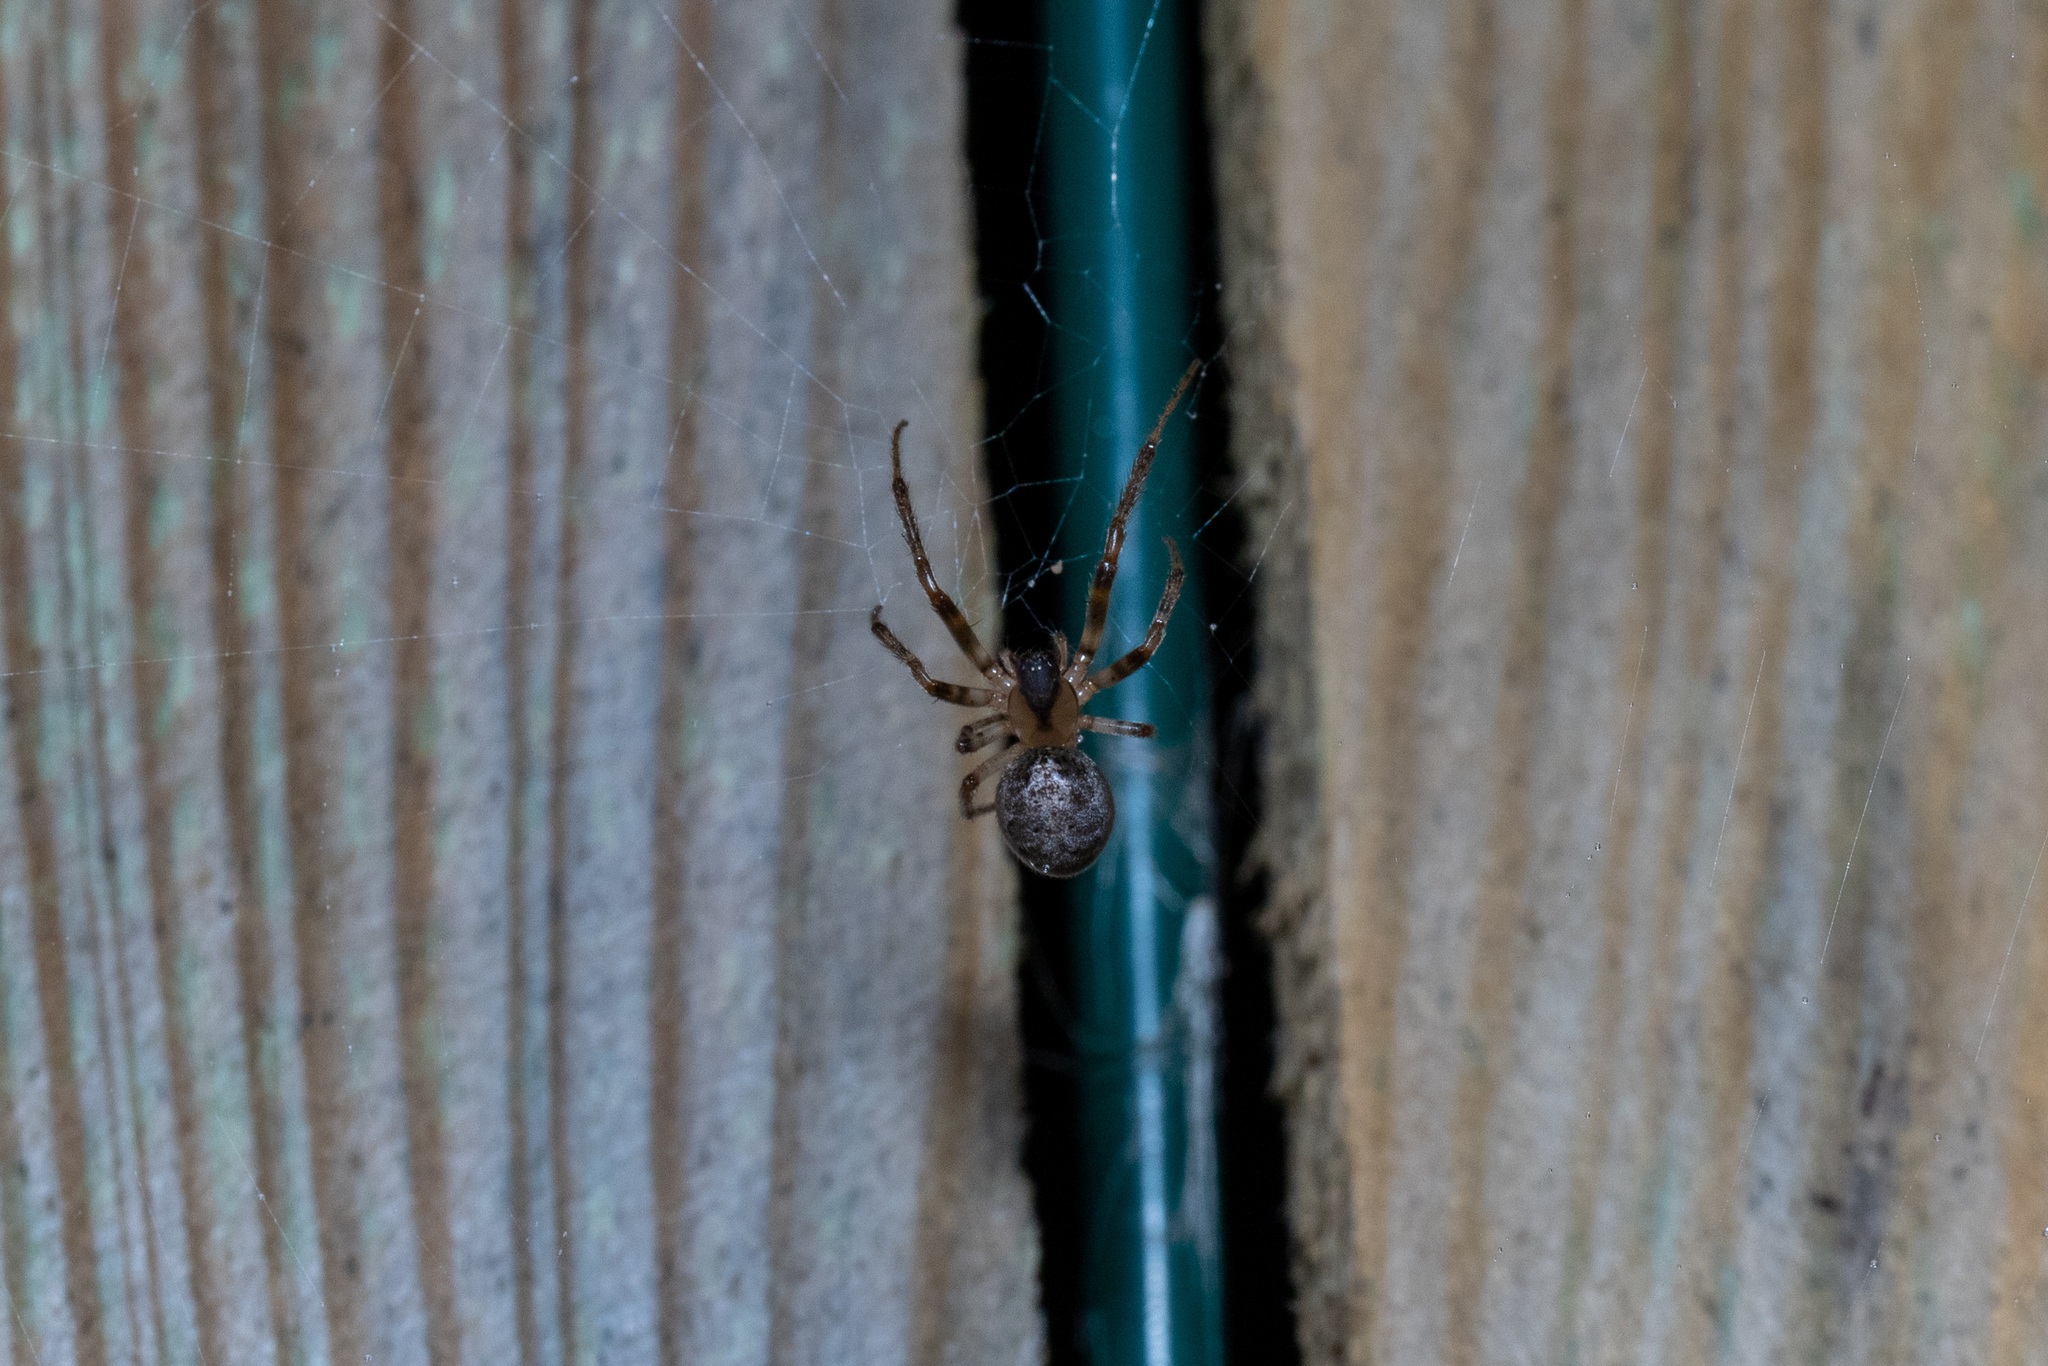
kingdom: Animalia
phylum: Arthropoda
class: Arachnida
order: Araneae
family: Araneidae
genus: Zygiella
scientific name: Zygiella x-notata
